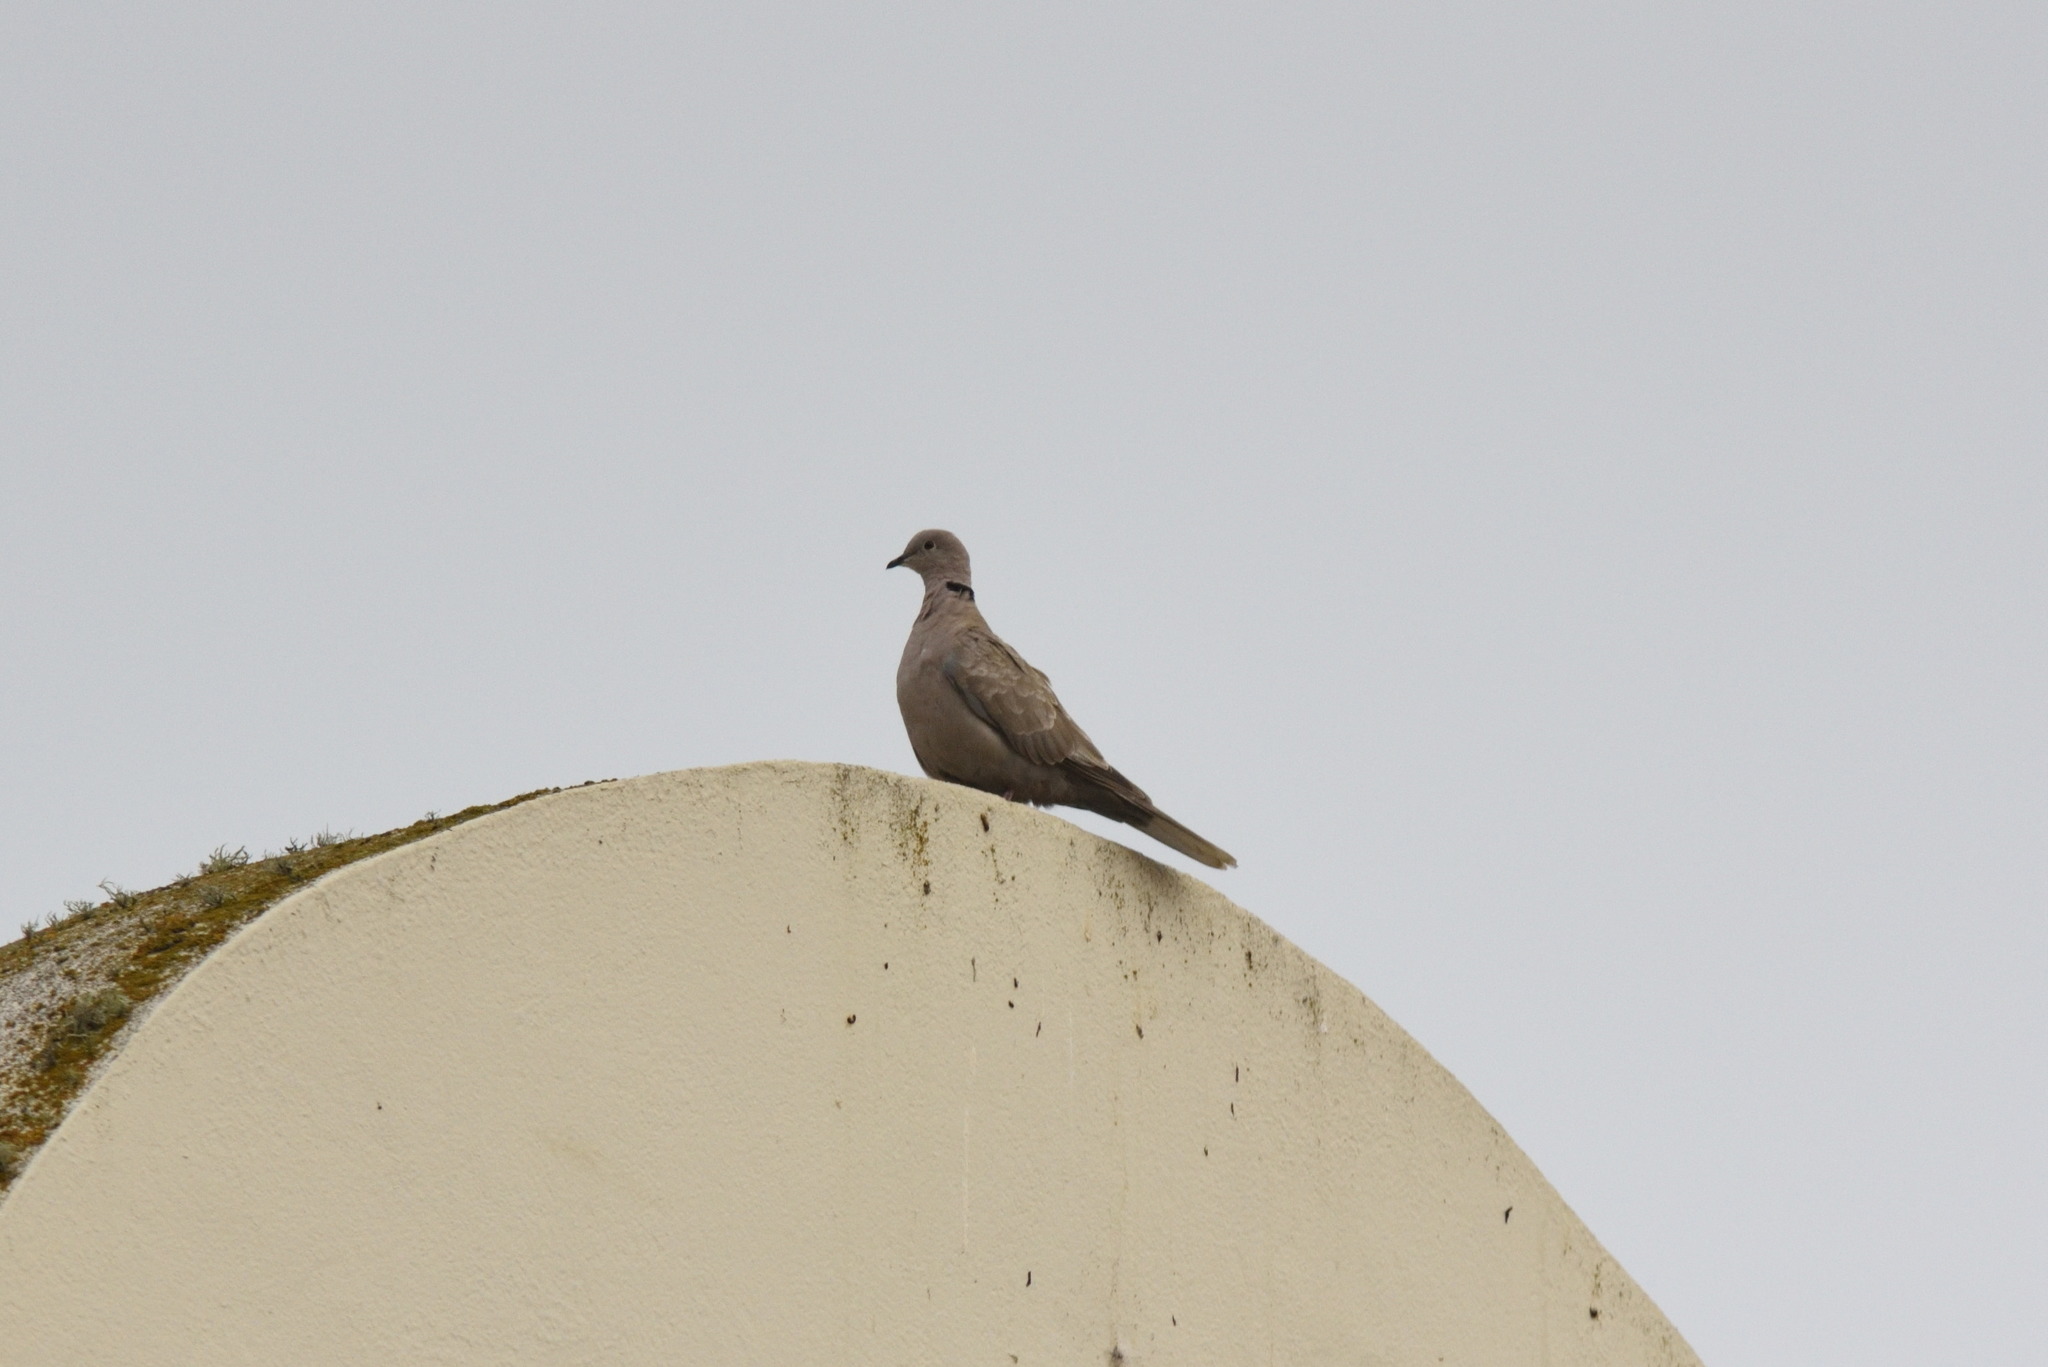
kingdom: Animalia
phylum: Chordata
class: Aves
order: Columbiformes
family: Columbidae
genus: Streptopelia
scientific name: Streptopelia decaocto
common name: Eurasian collared dove
